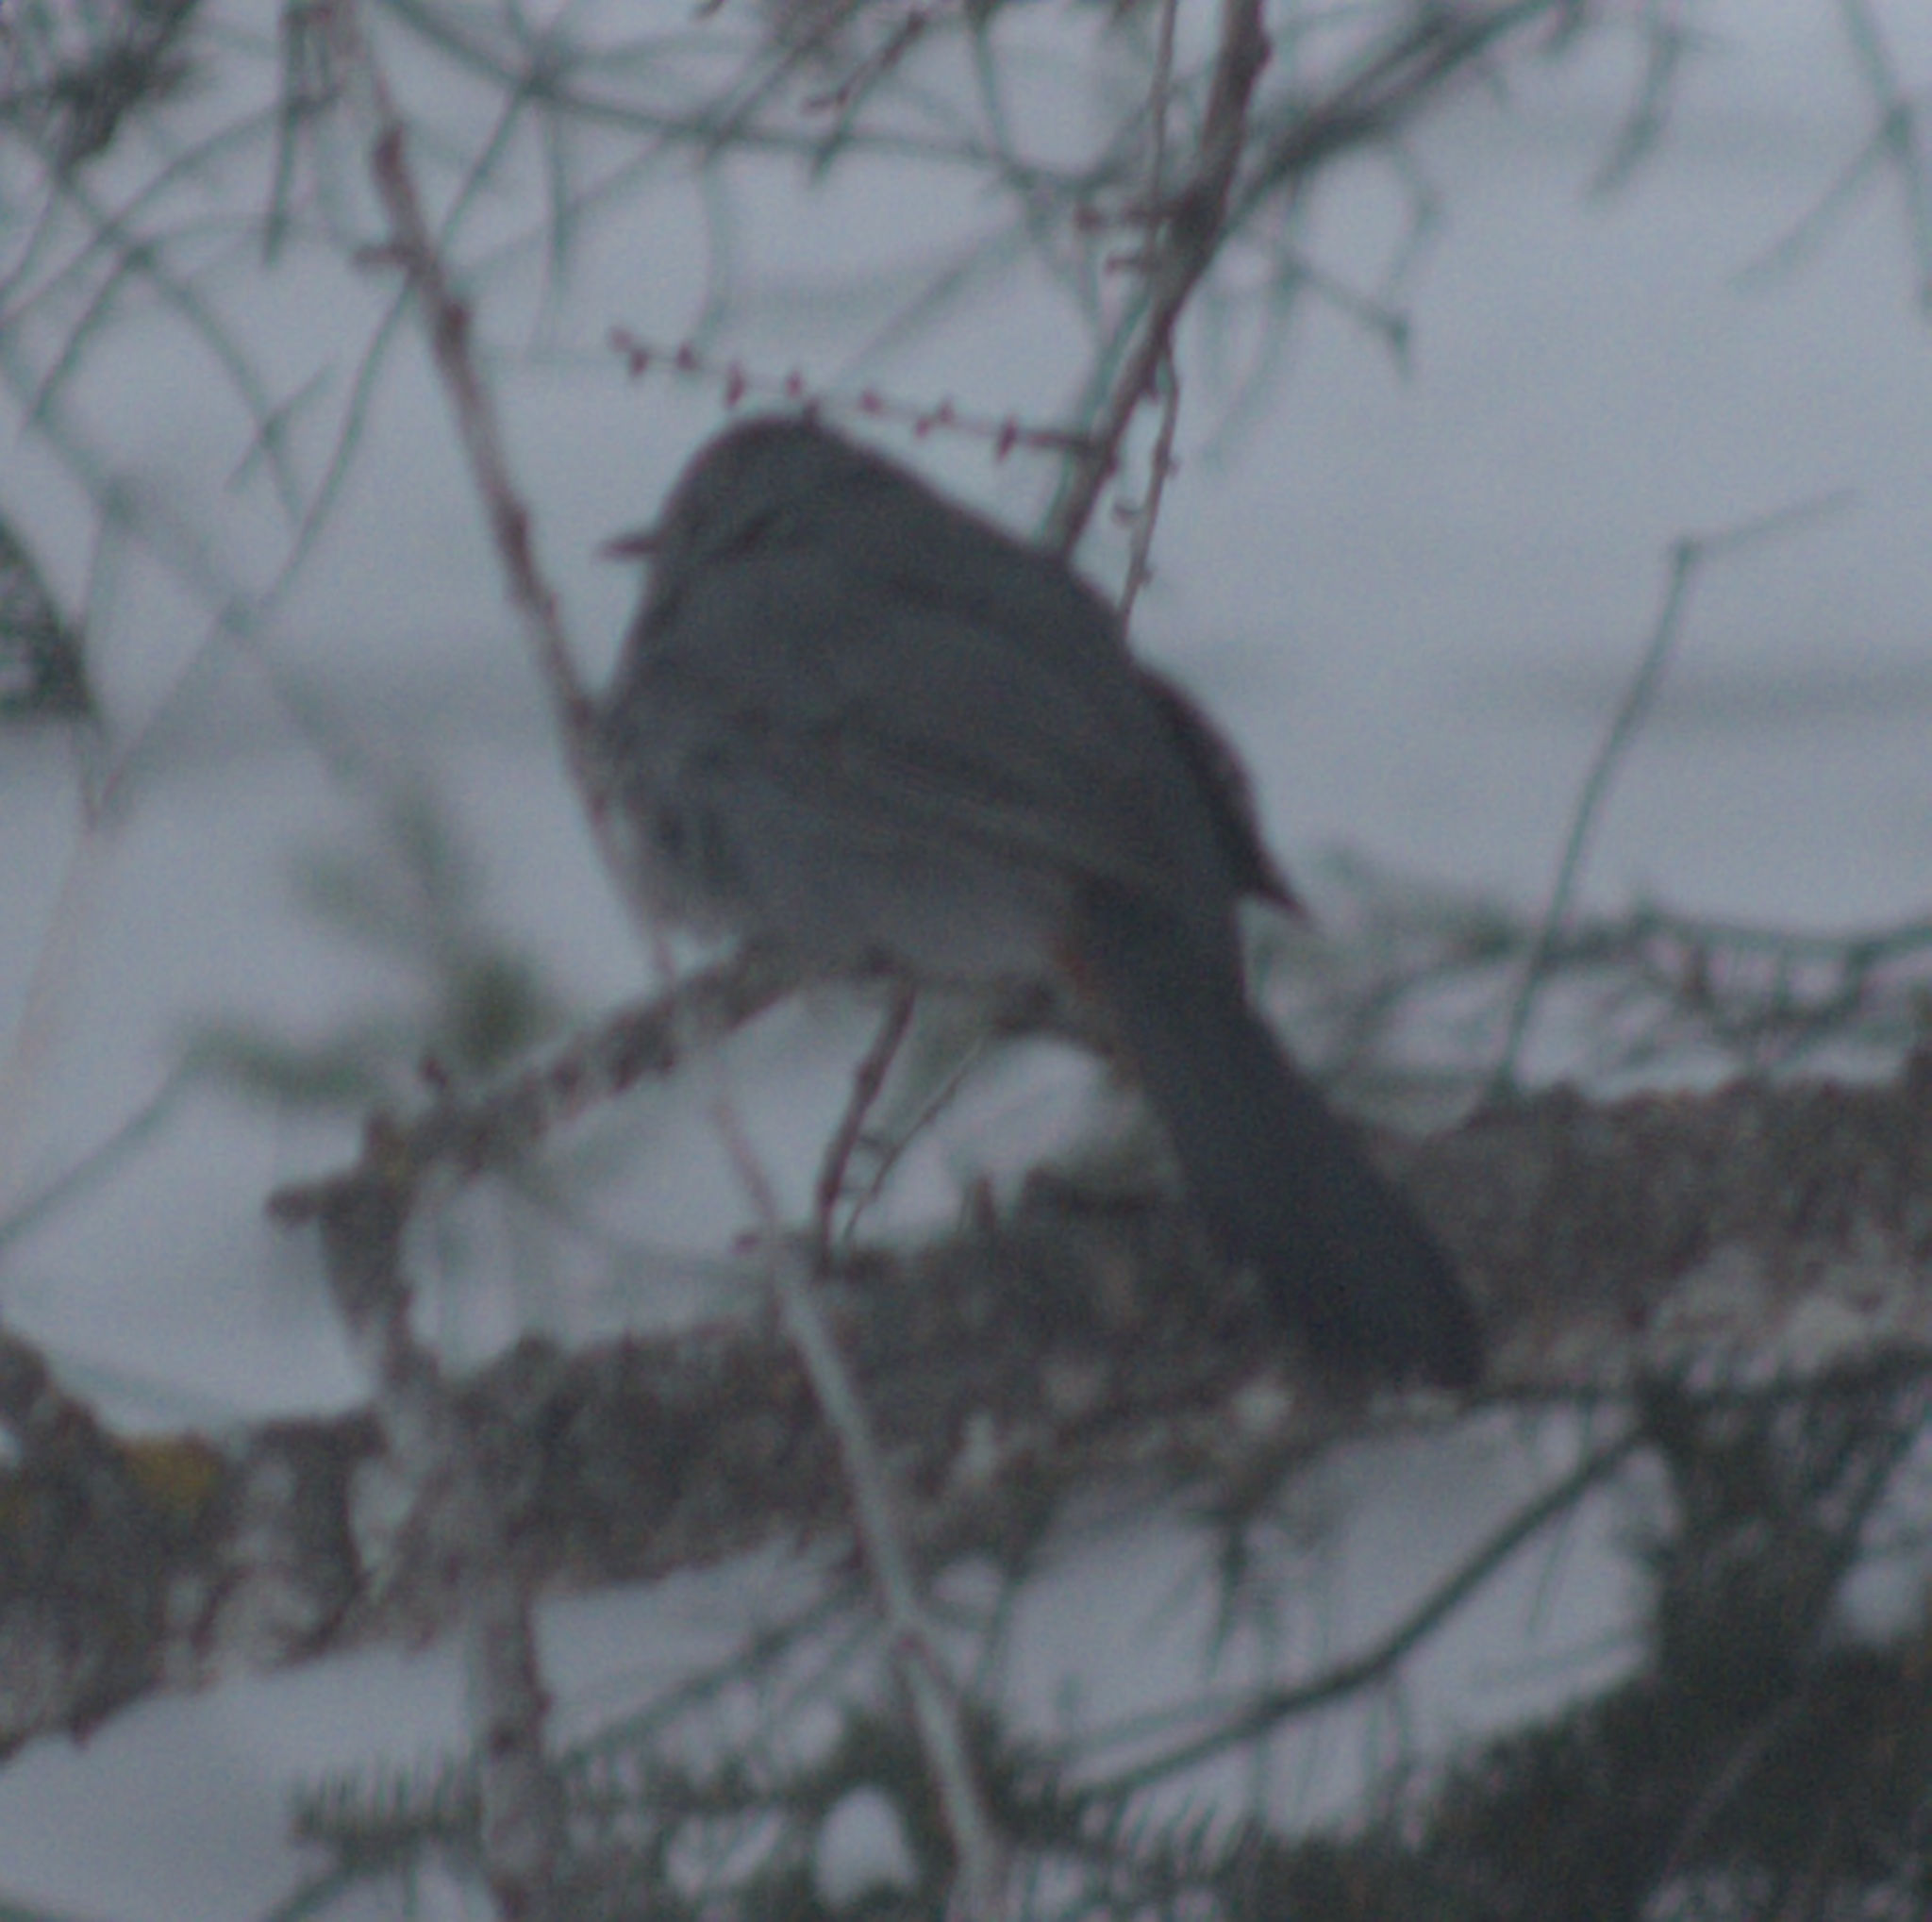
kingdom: Animalia
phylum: Chordata
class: Aves
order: Passeriformes
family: Mimidae
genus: Dumetella
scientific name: Dumetella carolinensis
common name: Gray catbird
